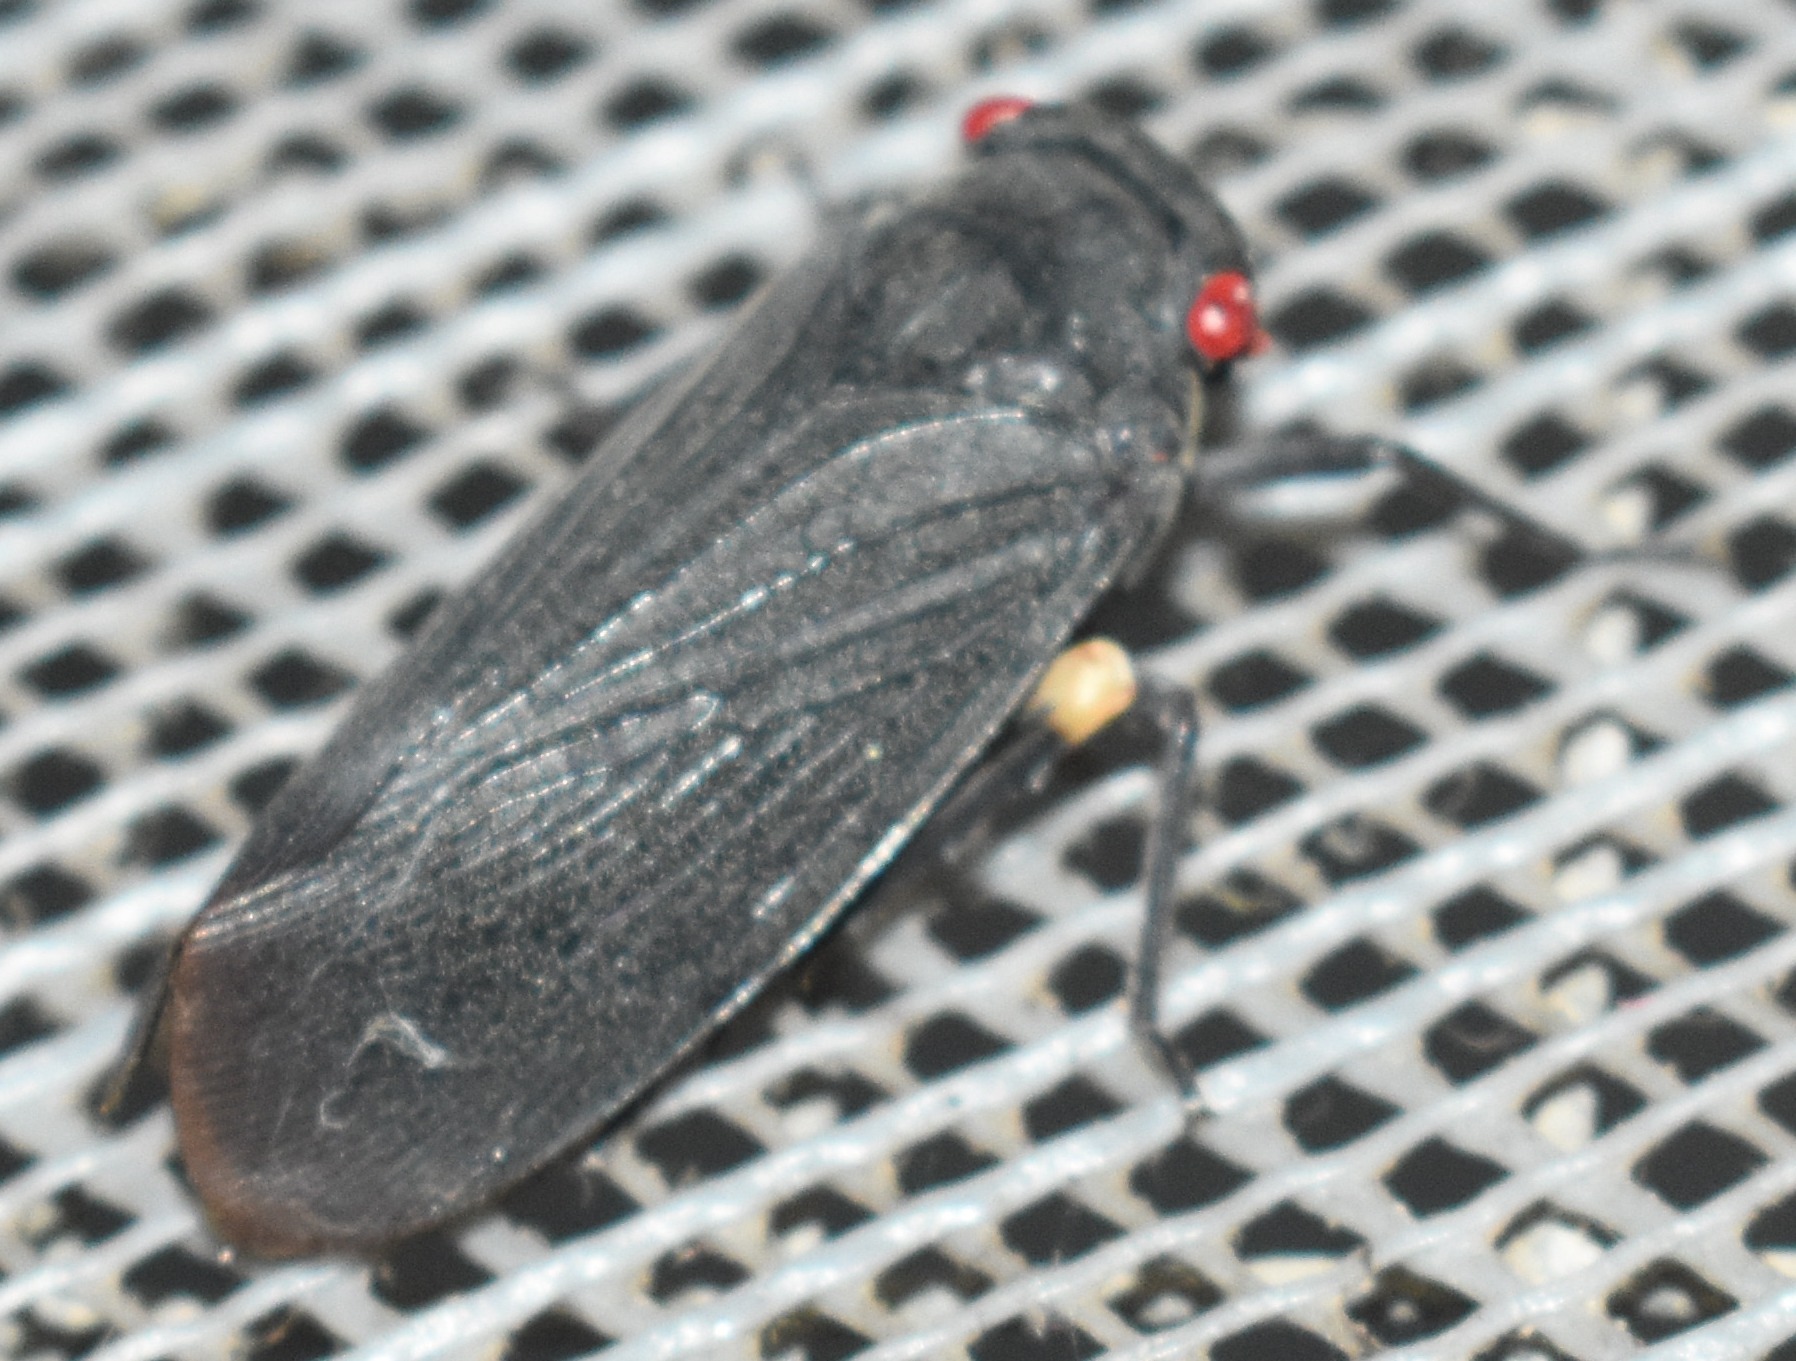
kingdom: Animalia
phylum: Arthropoda
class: Insecta
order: Hemiptera
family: Fulgoridae
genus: Acraephia
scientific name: Acraephia perspicillata
